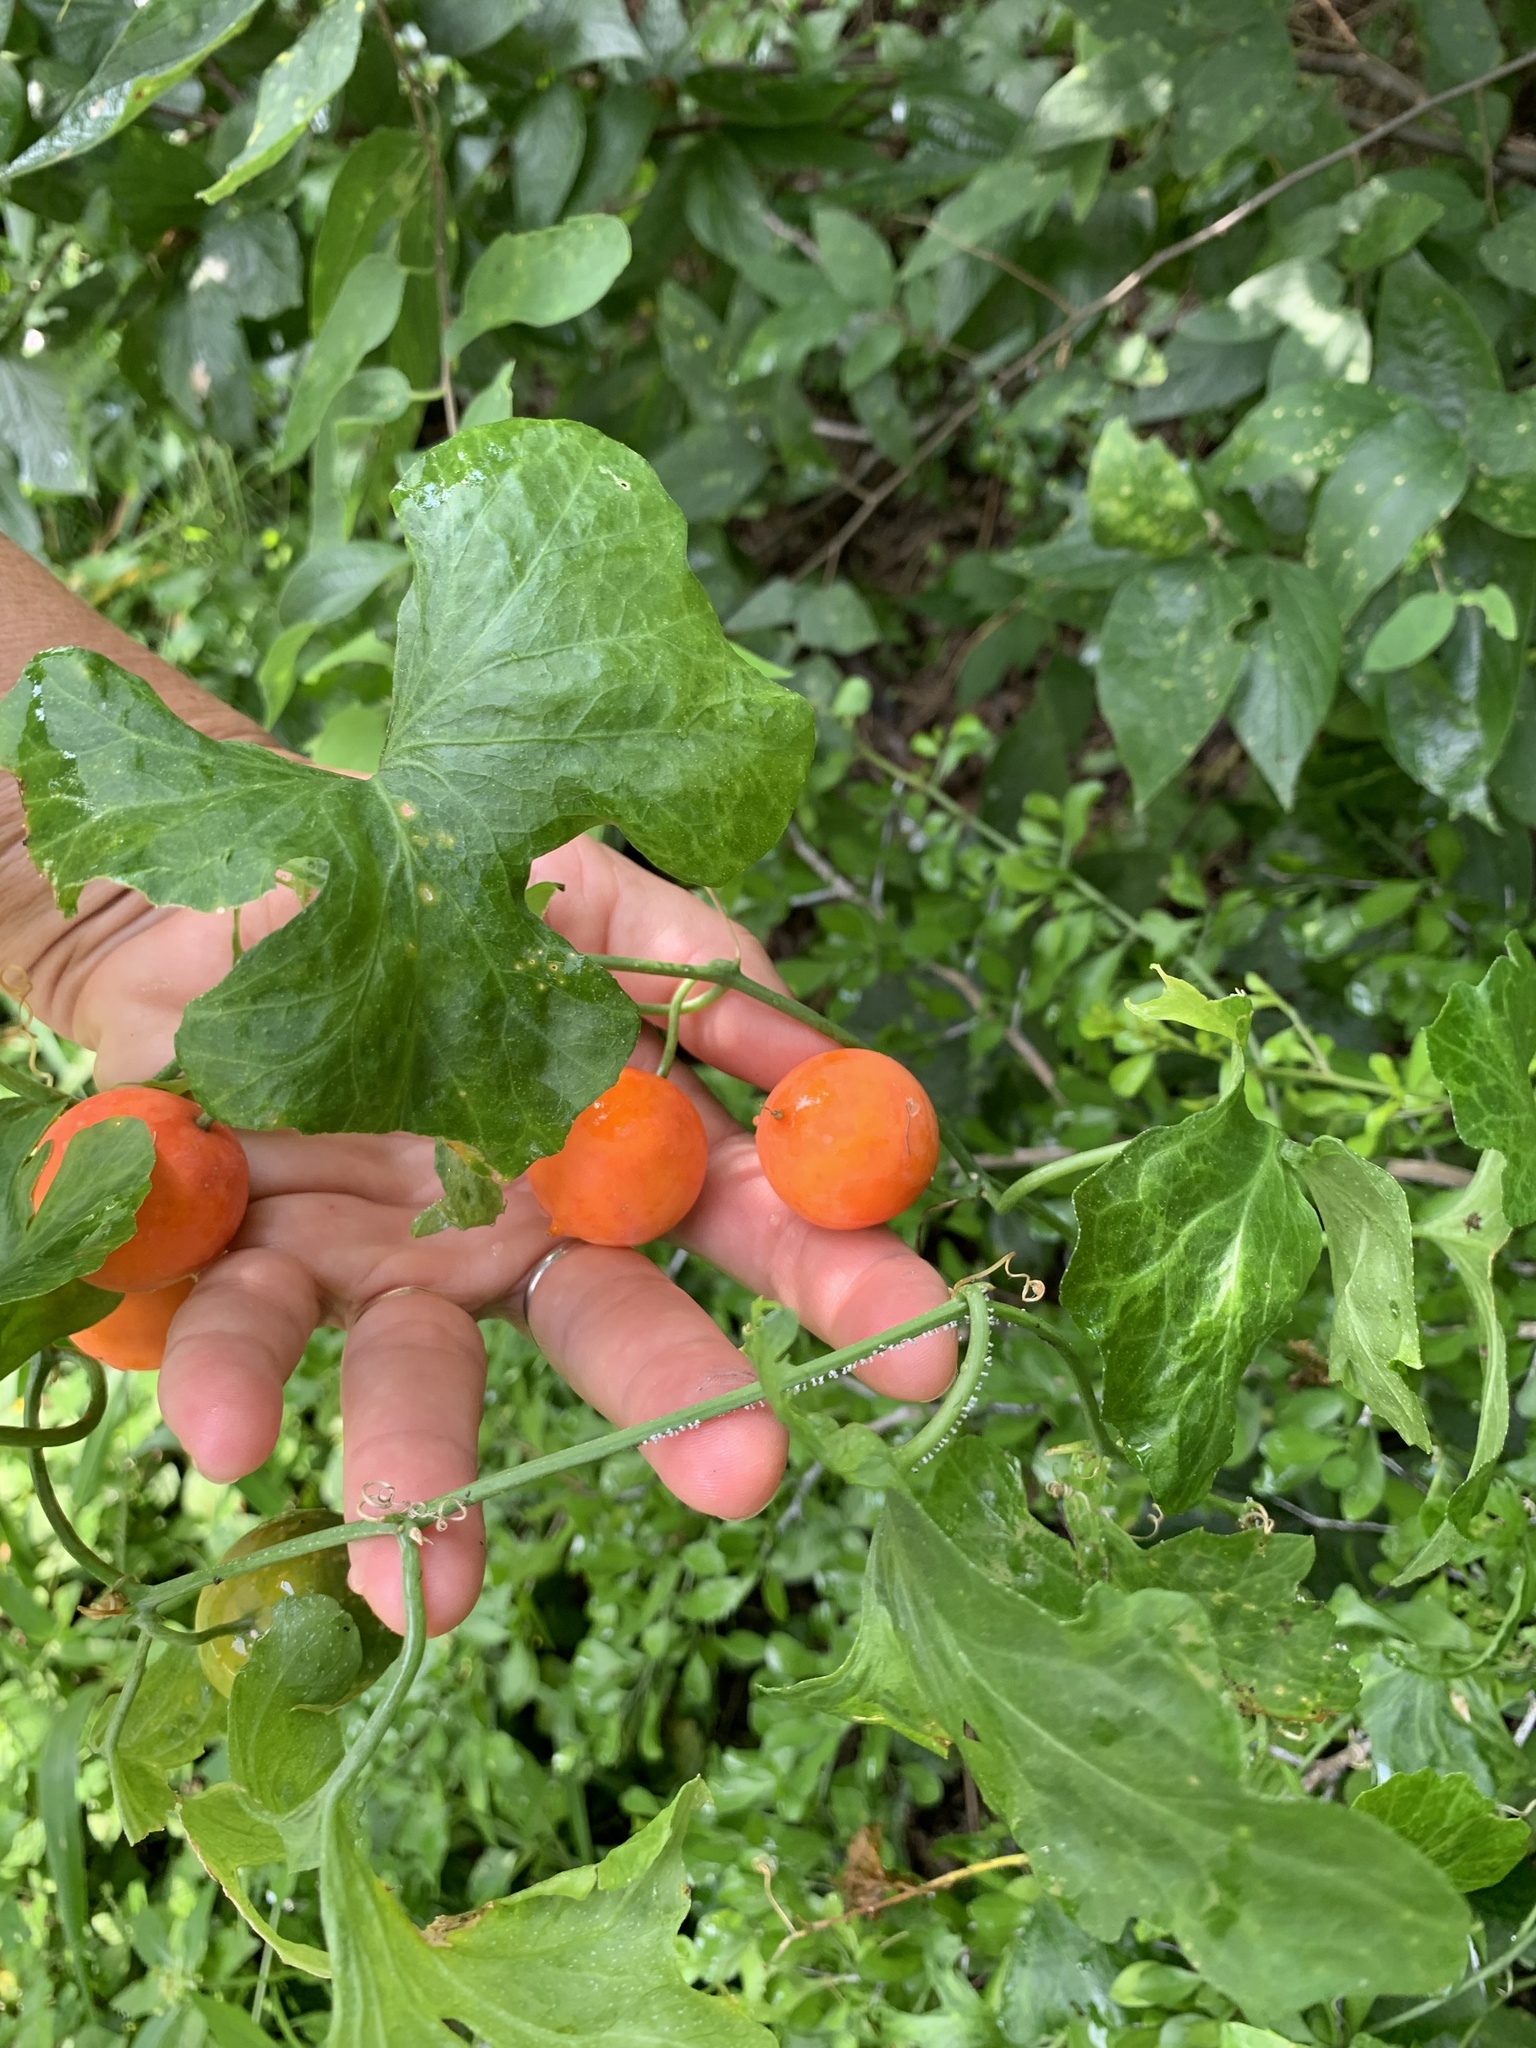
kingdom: Plantae
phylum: Tracheophyta
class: Magnoliopsida
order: Cucurbitales
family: Cucurbitaceae
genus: Ibervillea
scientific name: Ibervillea lindheimeri
